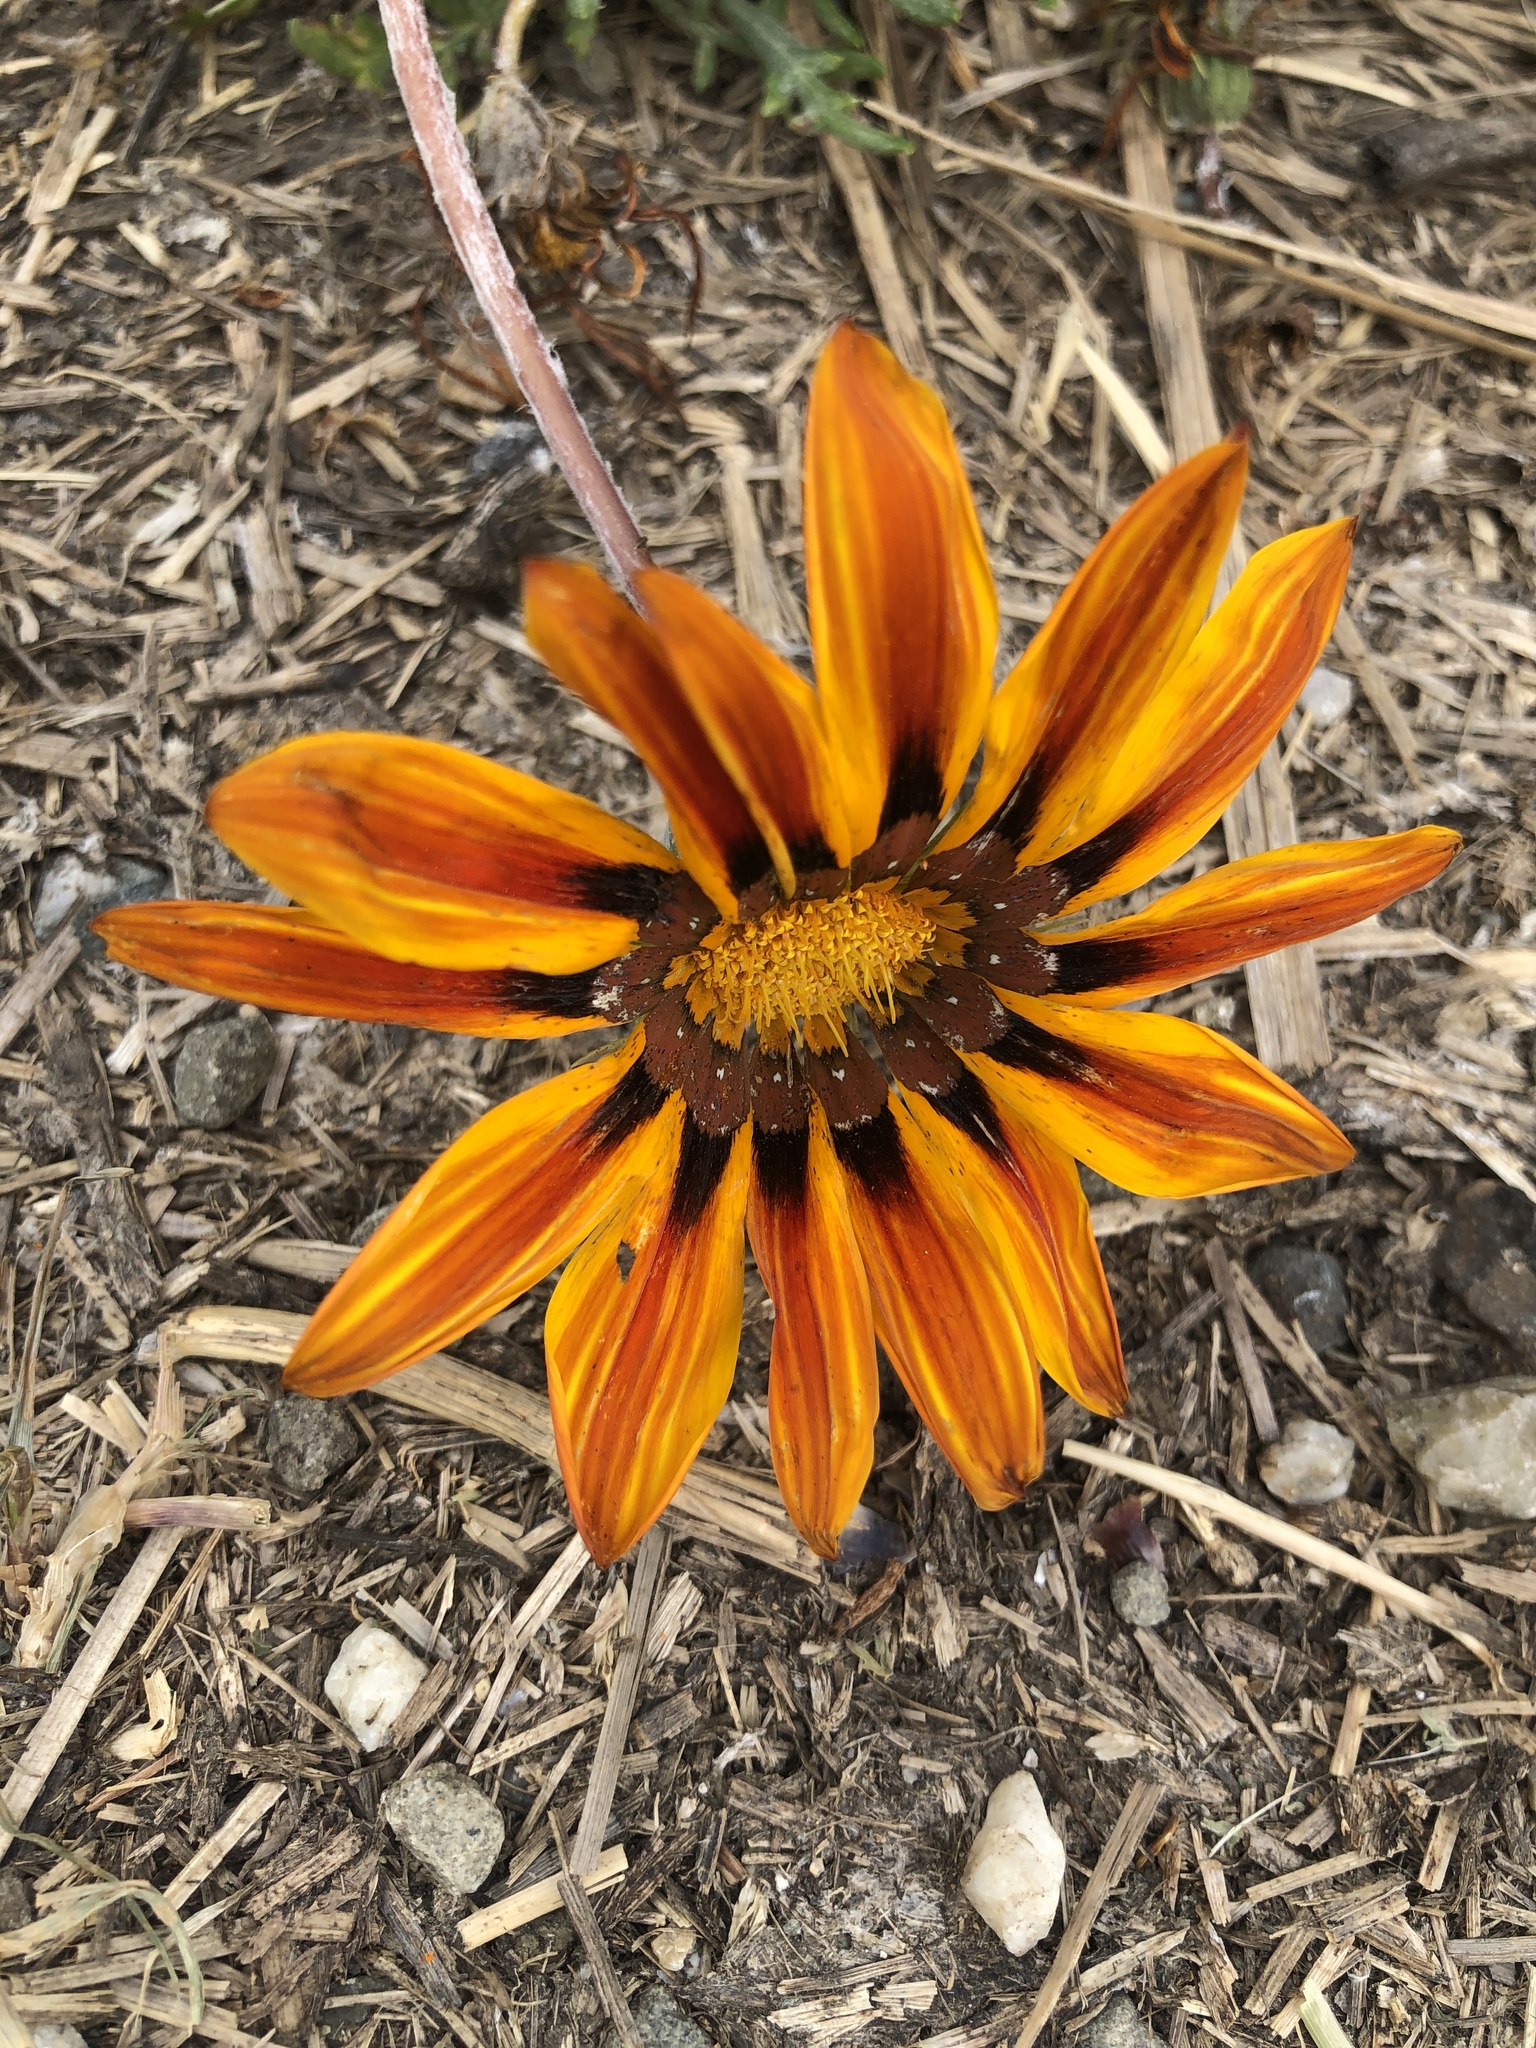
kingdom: Plantae
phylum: Tracheophyta
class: Magnoliopsida
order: Asterales
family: Asteraceae
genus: Gazania
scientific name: Gazania linearis
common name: Treasureflower
